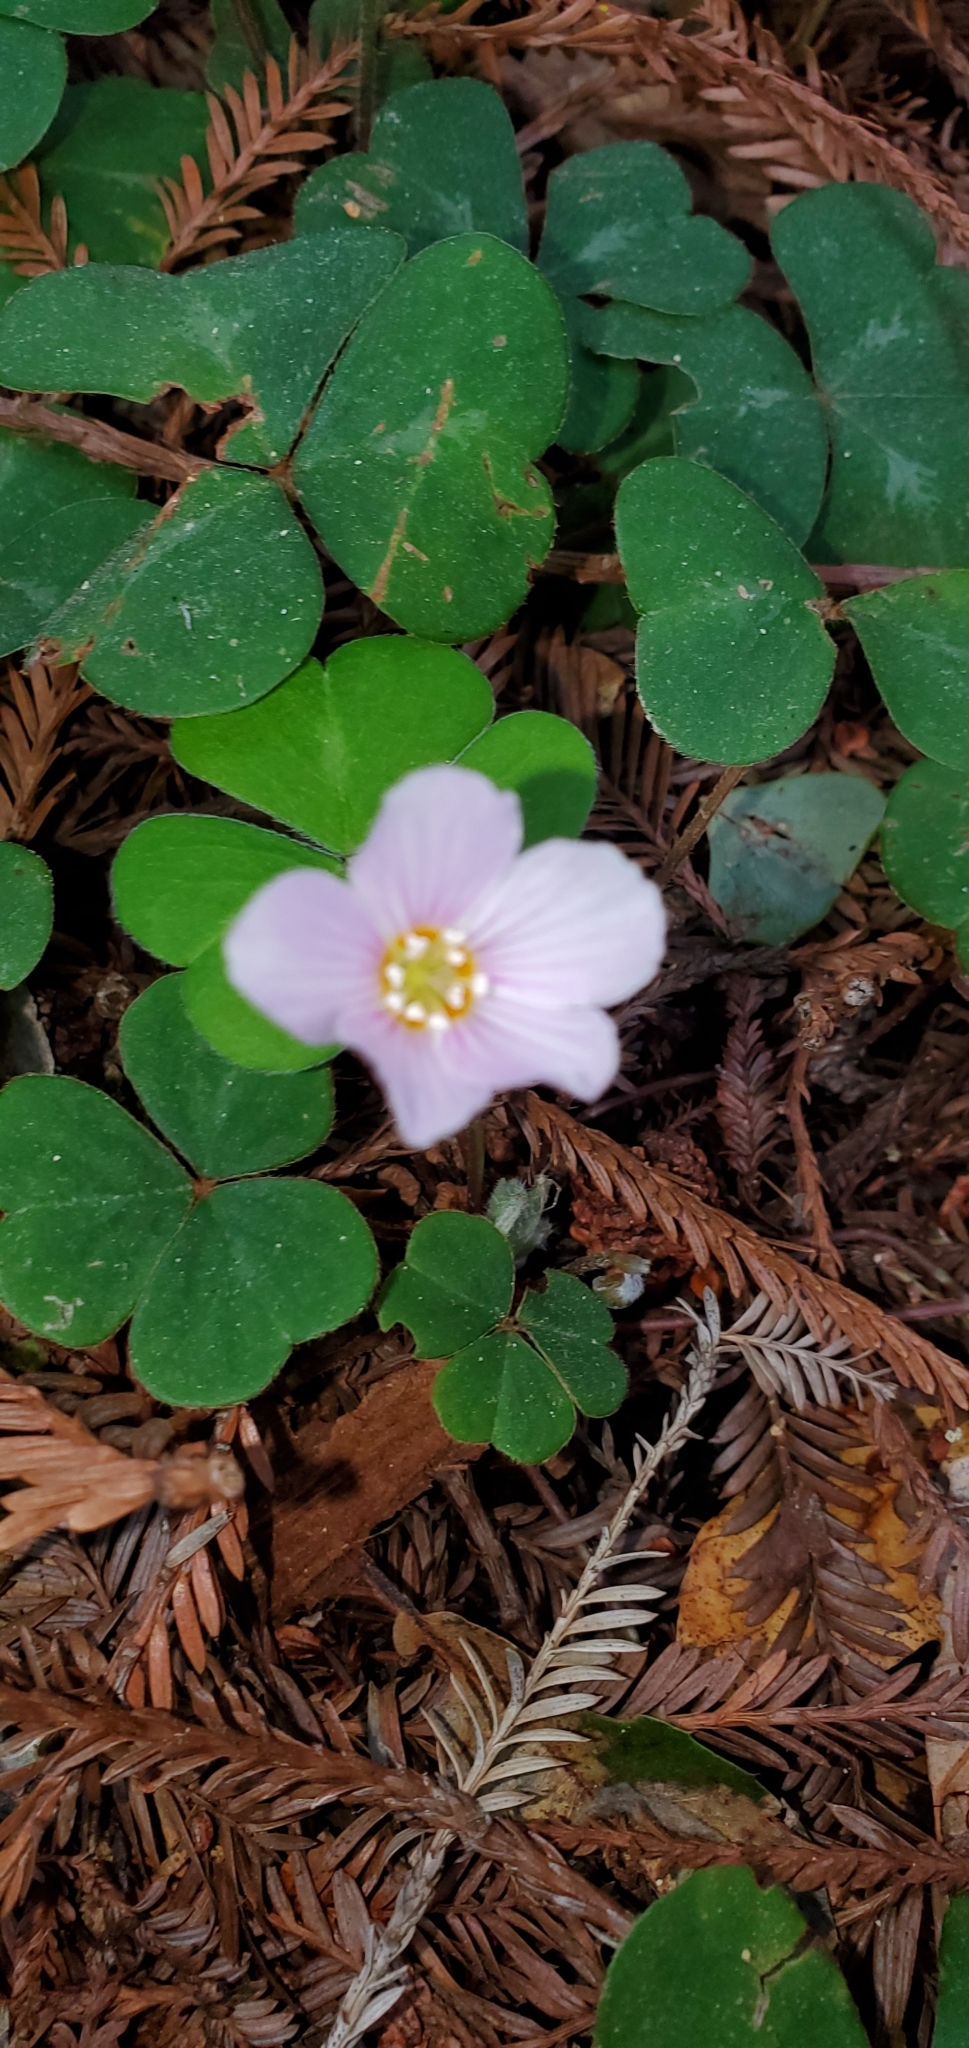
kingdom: Plantae
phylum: Tracheophyta
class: Magnoliopsida
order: Oxalidales
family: Oxalidaceae
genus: Oxalis
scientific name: Oxalis oregana
